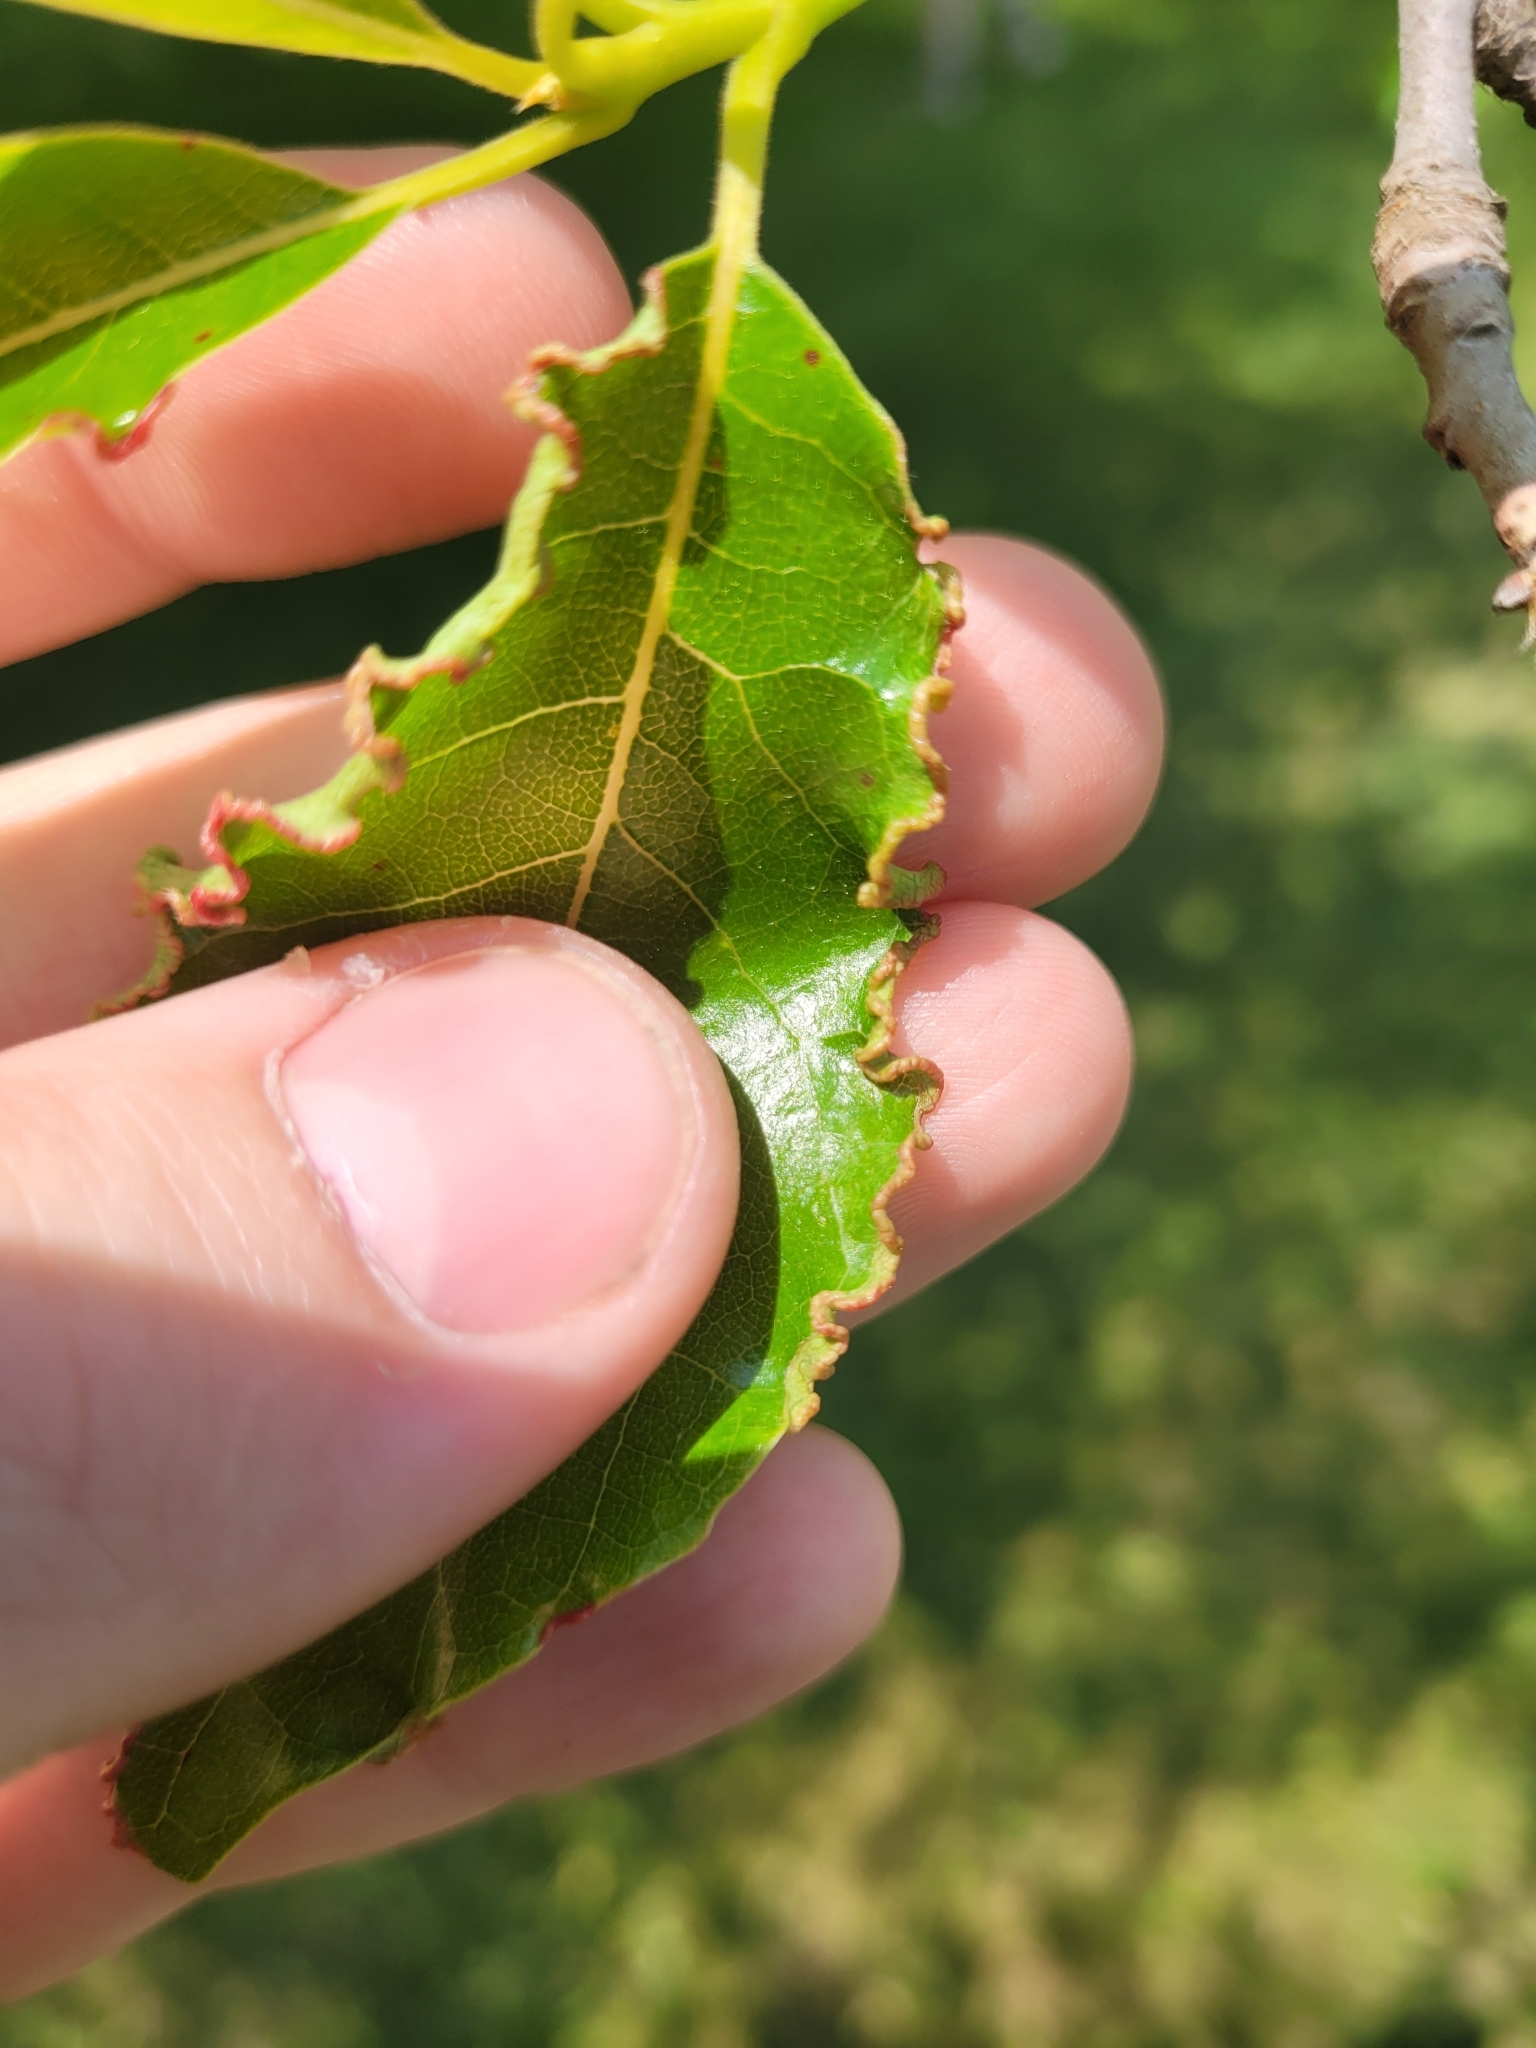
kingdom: Animalia
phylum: Arthropoda
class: Arachnida
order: Trombidiformes
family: Eriophyidae
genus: Aceria
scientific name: Aceria
